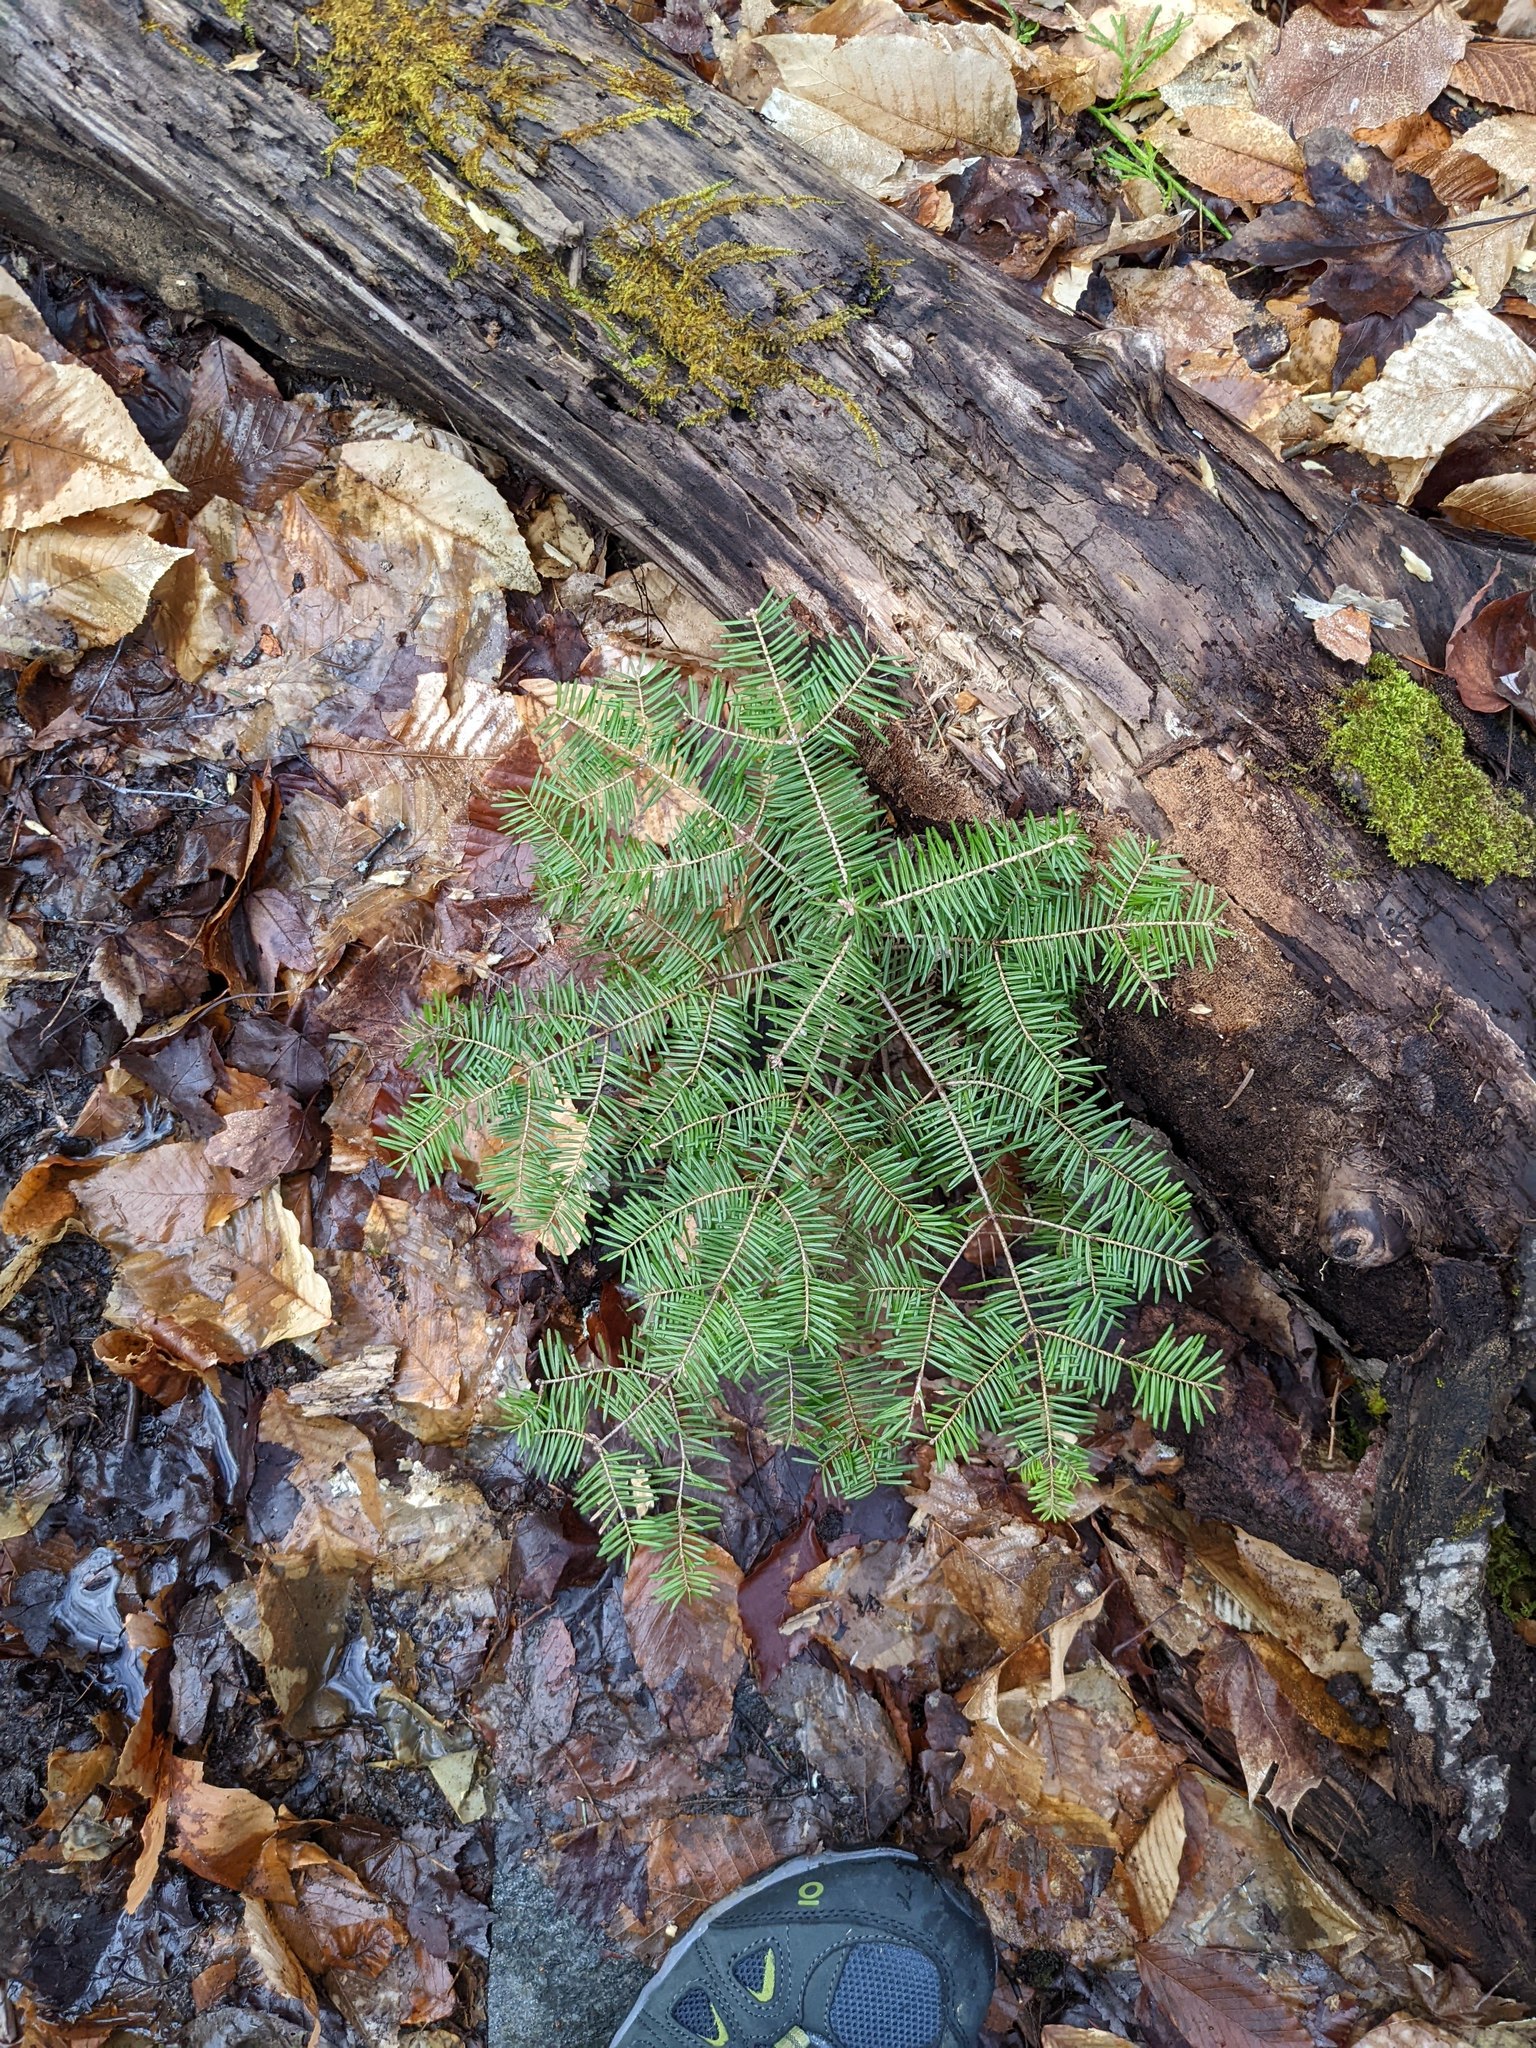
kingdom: Plantae
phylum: Tracheophyta
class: Pinopsida
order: Pinales
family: Pinaceae
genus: Abies
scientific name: Abies balsamea
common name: Balsam fir
